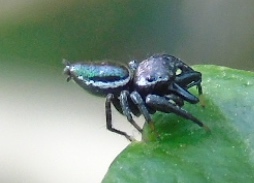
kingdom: Animalia
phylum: Arthropoda
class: Arachnida
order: Araneae
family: Salticidae
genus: Messua
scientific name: Messua limbata
